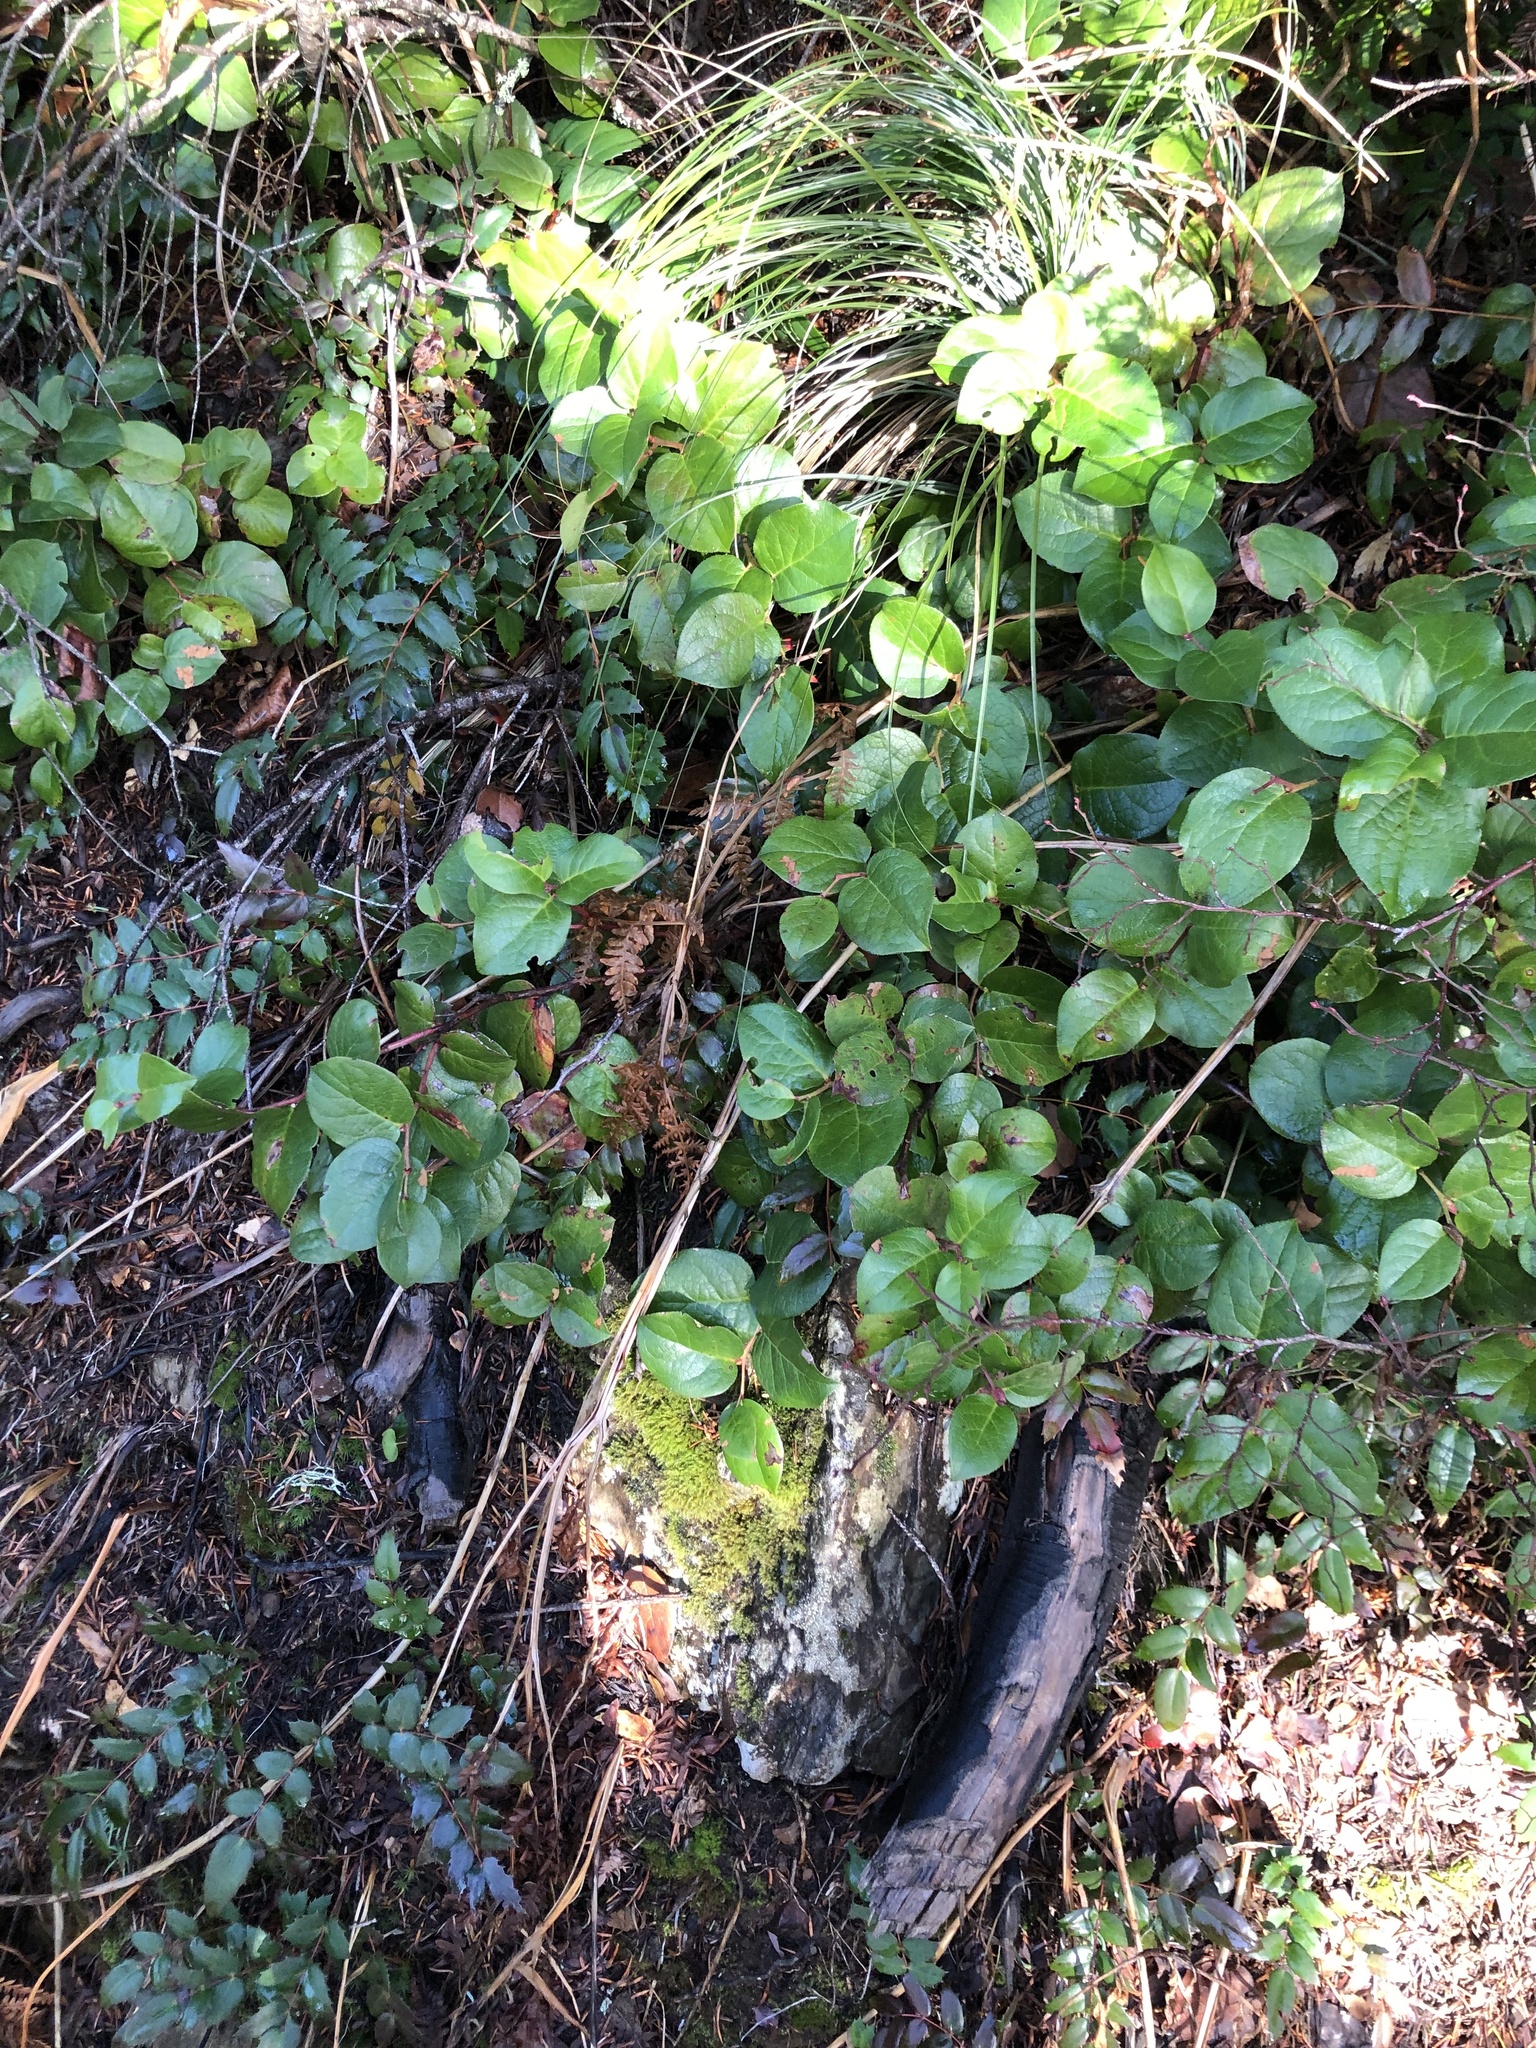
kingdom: Plantae
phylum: Tracheophyta
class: Magnoliopsida
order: Ericales
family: Ericaceae
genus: Gaultheria
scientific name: Gaultheria shallon
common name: Shallon
